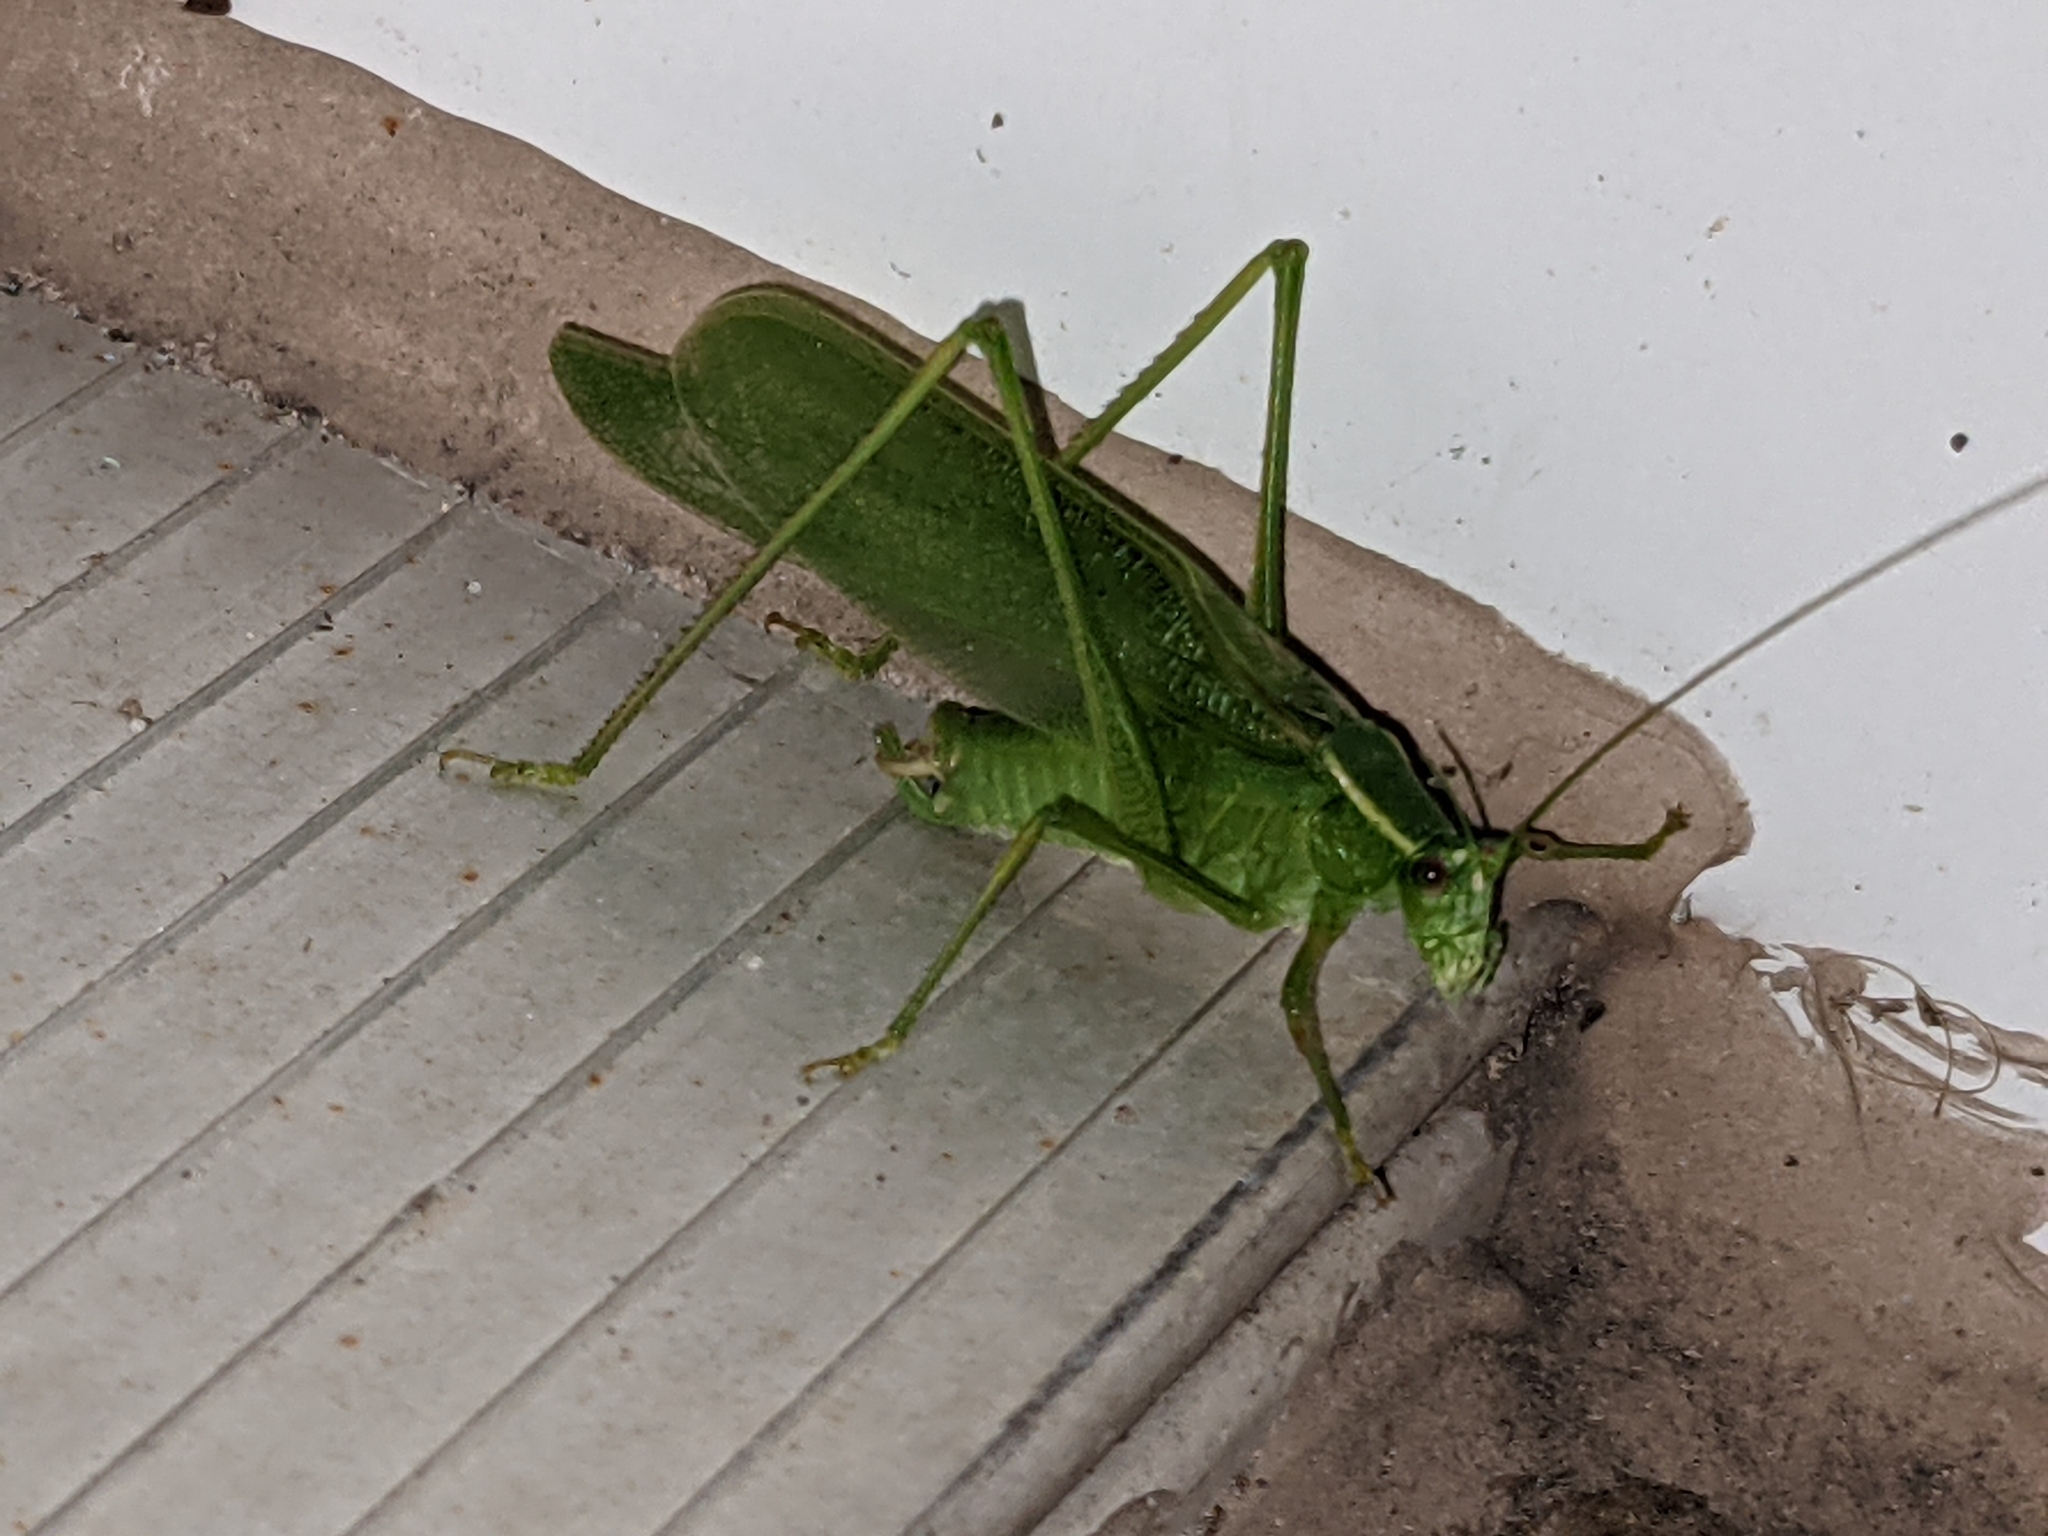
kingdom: Animalia
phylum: Arthropoda
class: Insecta
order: Orthoptera
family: Tettigoniidae
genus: Scudderia
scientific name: Scudderia septentrionalis
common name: Northern bush-katydid
